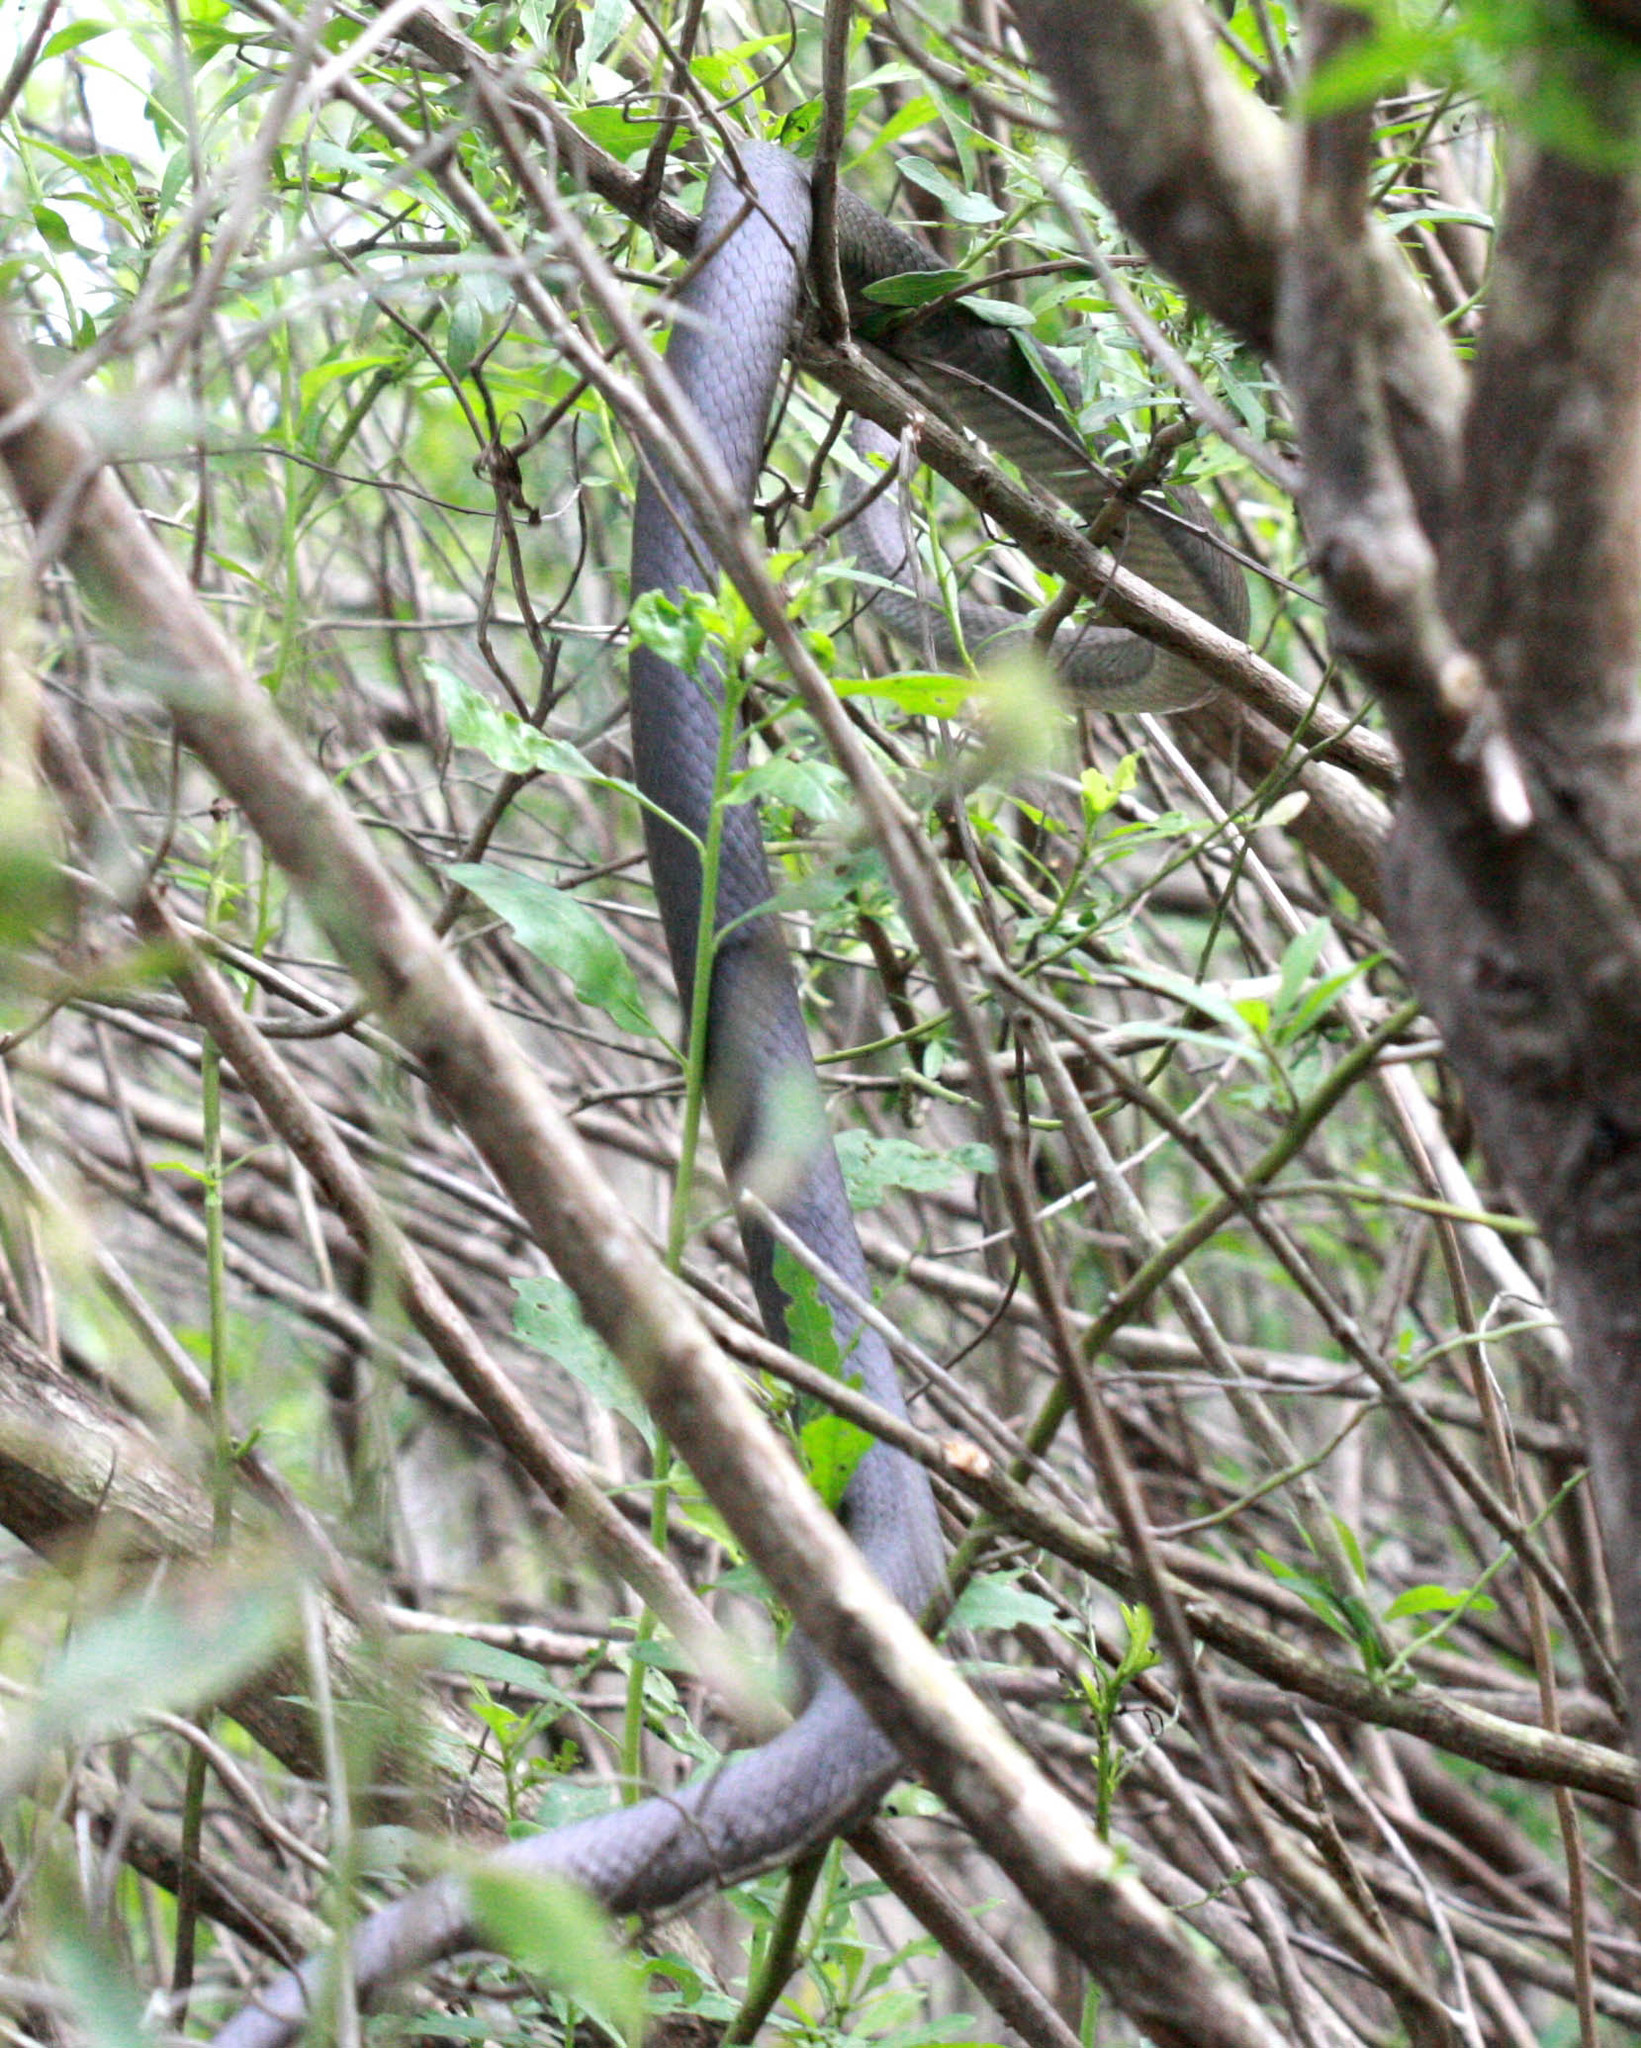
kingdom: Animalia
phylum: Chordata
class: Squamata
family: Colubridae
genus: Coluber
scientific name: Coluber constrictor
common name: Eastern racer
